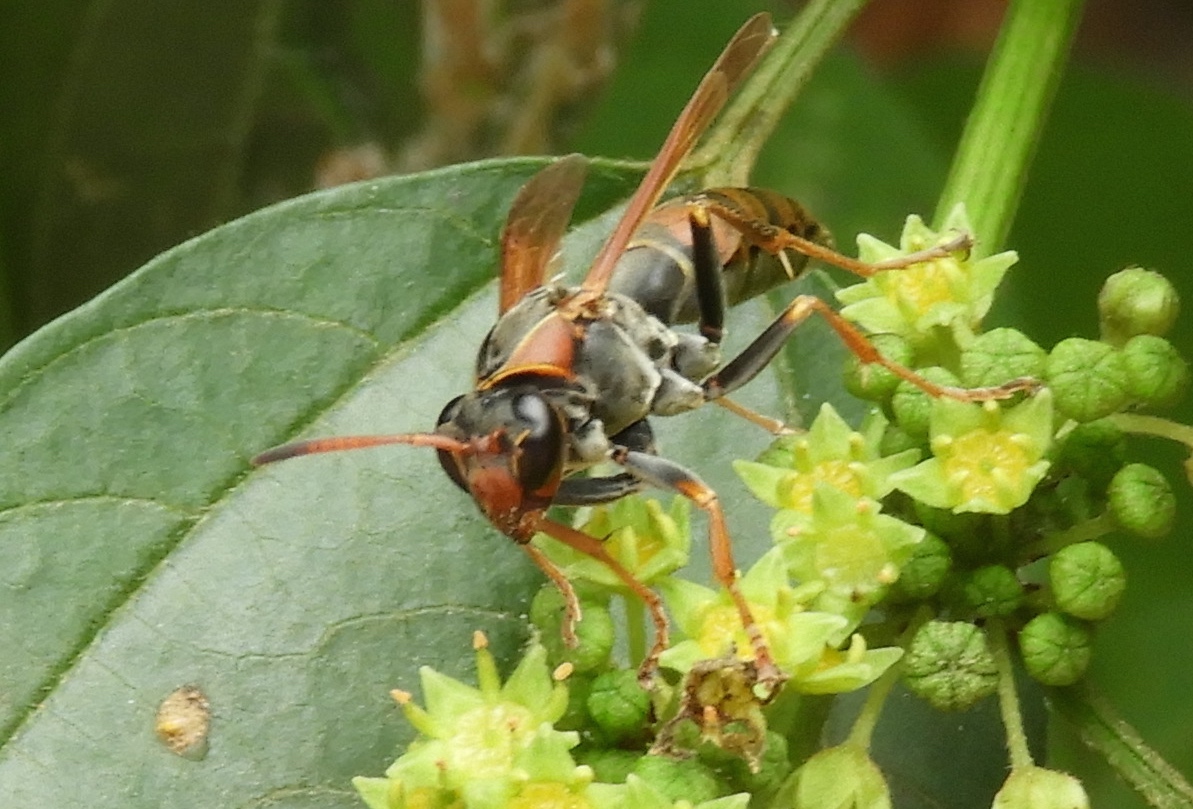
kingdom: Animalia
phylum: Arthropoda
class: Insecta
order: Hymenoptera
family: Eumenidae
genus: Polistes
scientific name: Polistes pacificus
